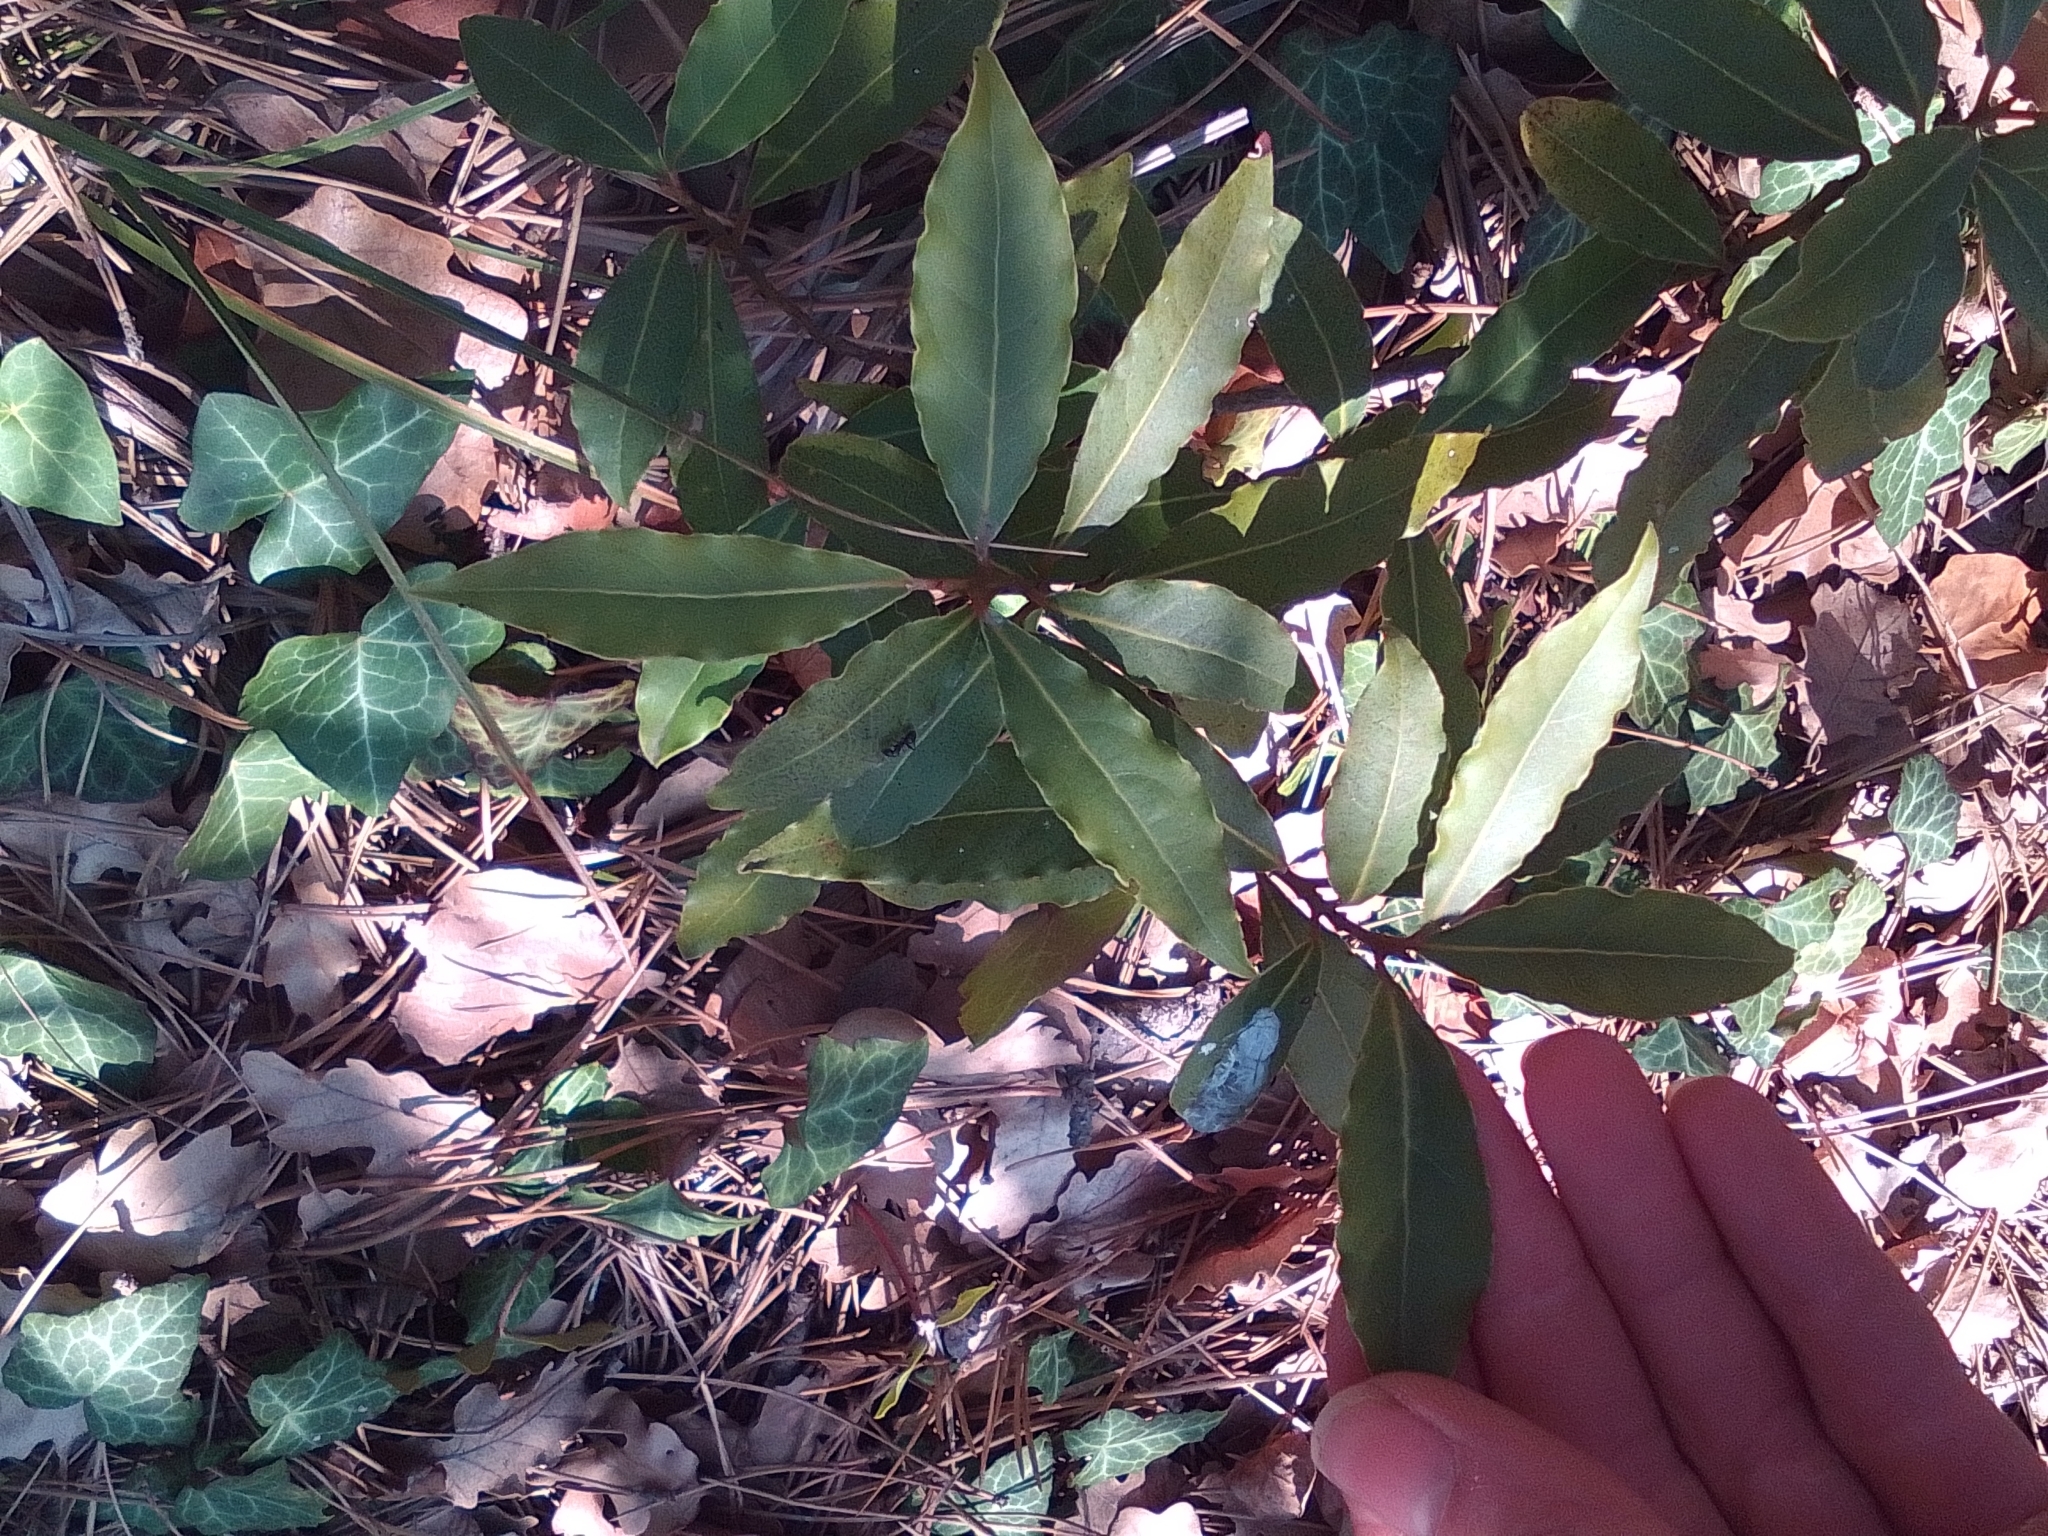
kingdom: Plantae
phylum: Tracheophyta
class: Magnoliopsida
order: Laurales
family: Lauraceae
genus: Laurus
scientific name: Laurus nobilis
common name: Bay
